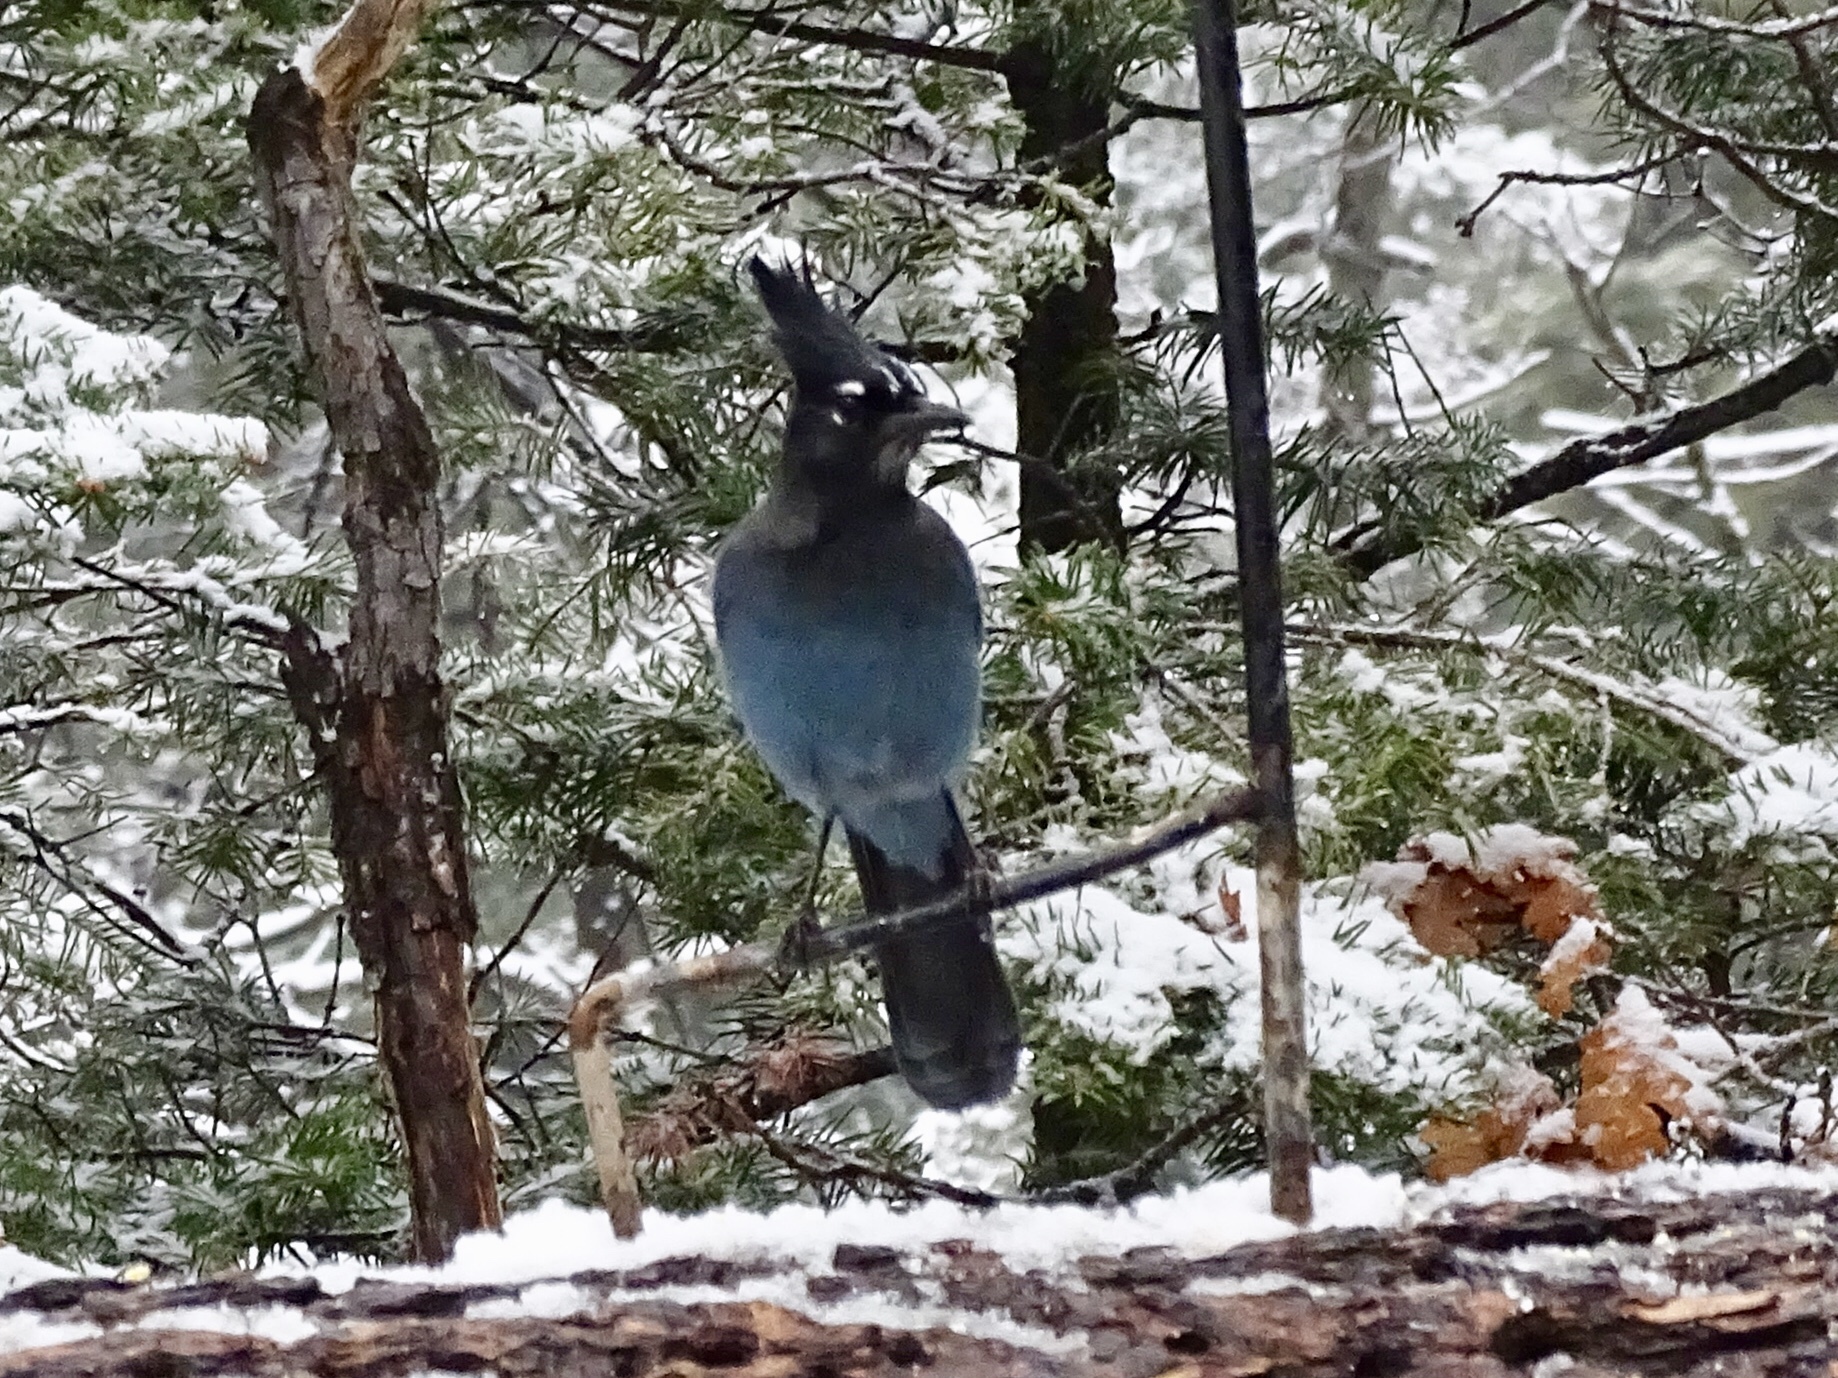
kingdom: Animalia
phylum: Chordata
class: Aves
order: Passeriformes
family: Corvidae
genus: Cyanocitta
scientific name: Cyanocitta stelleri
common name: Steller's jay
